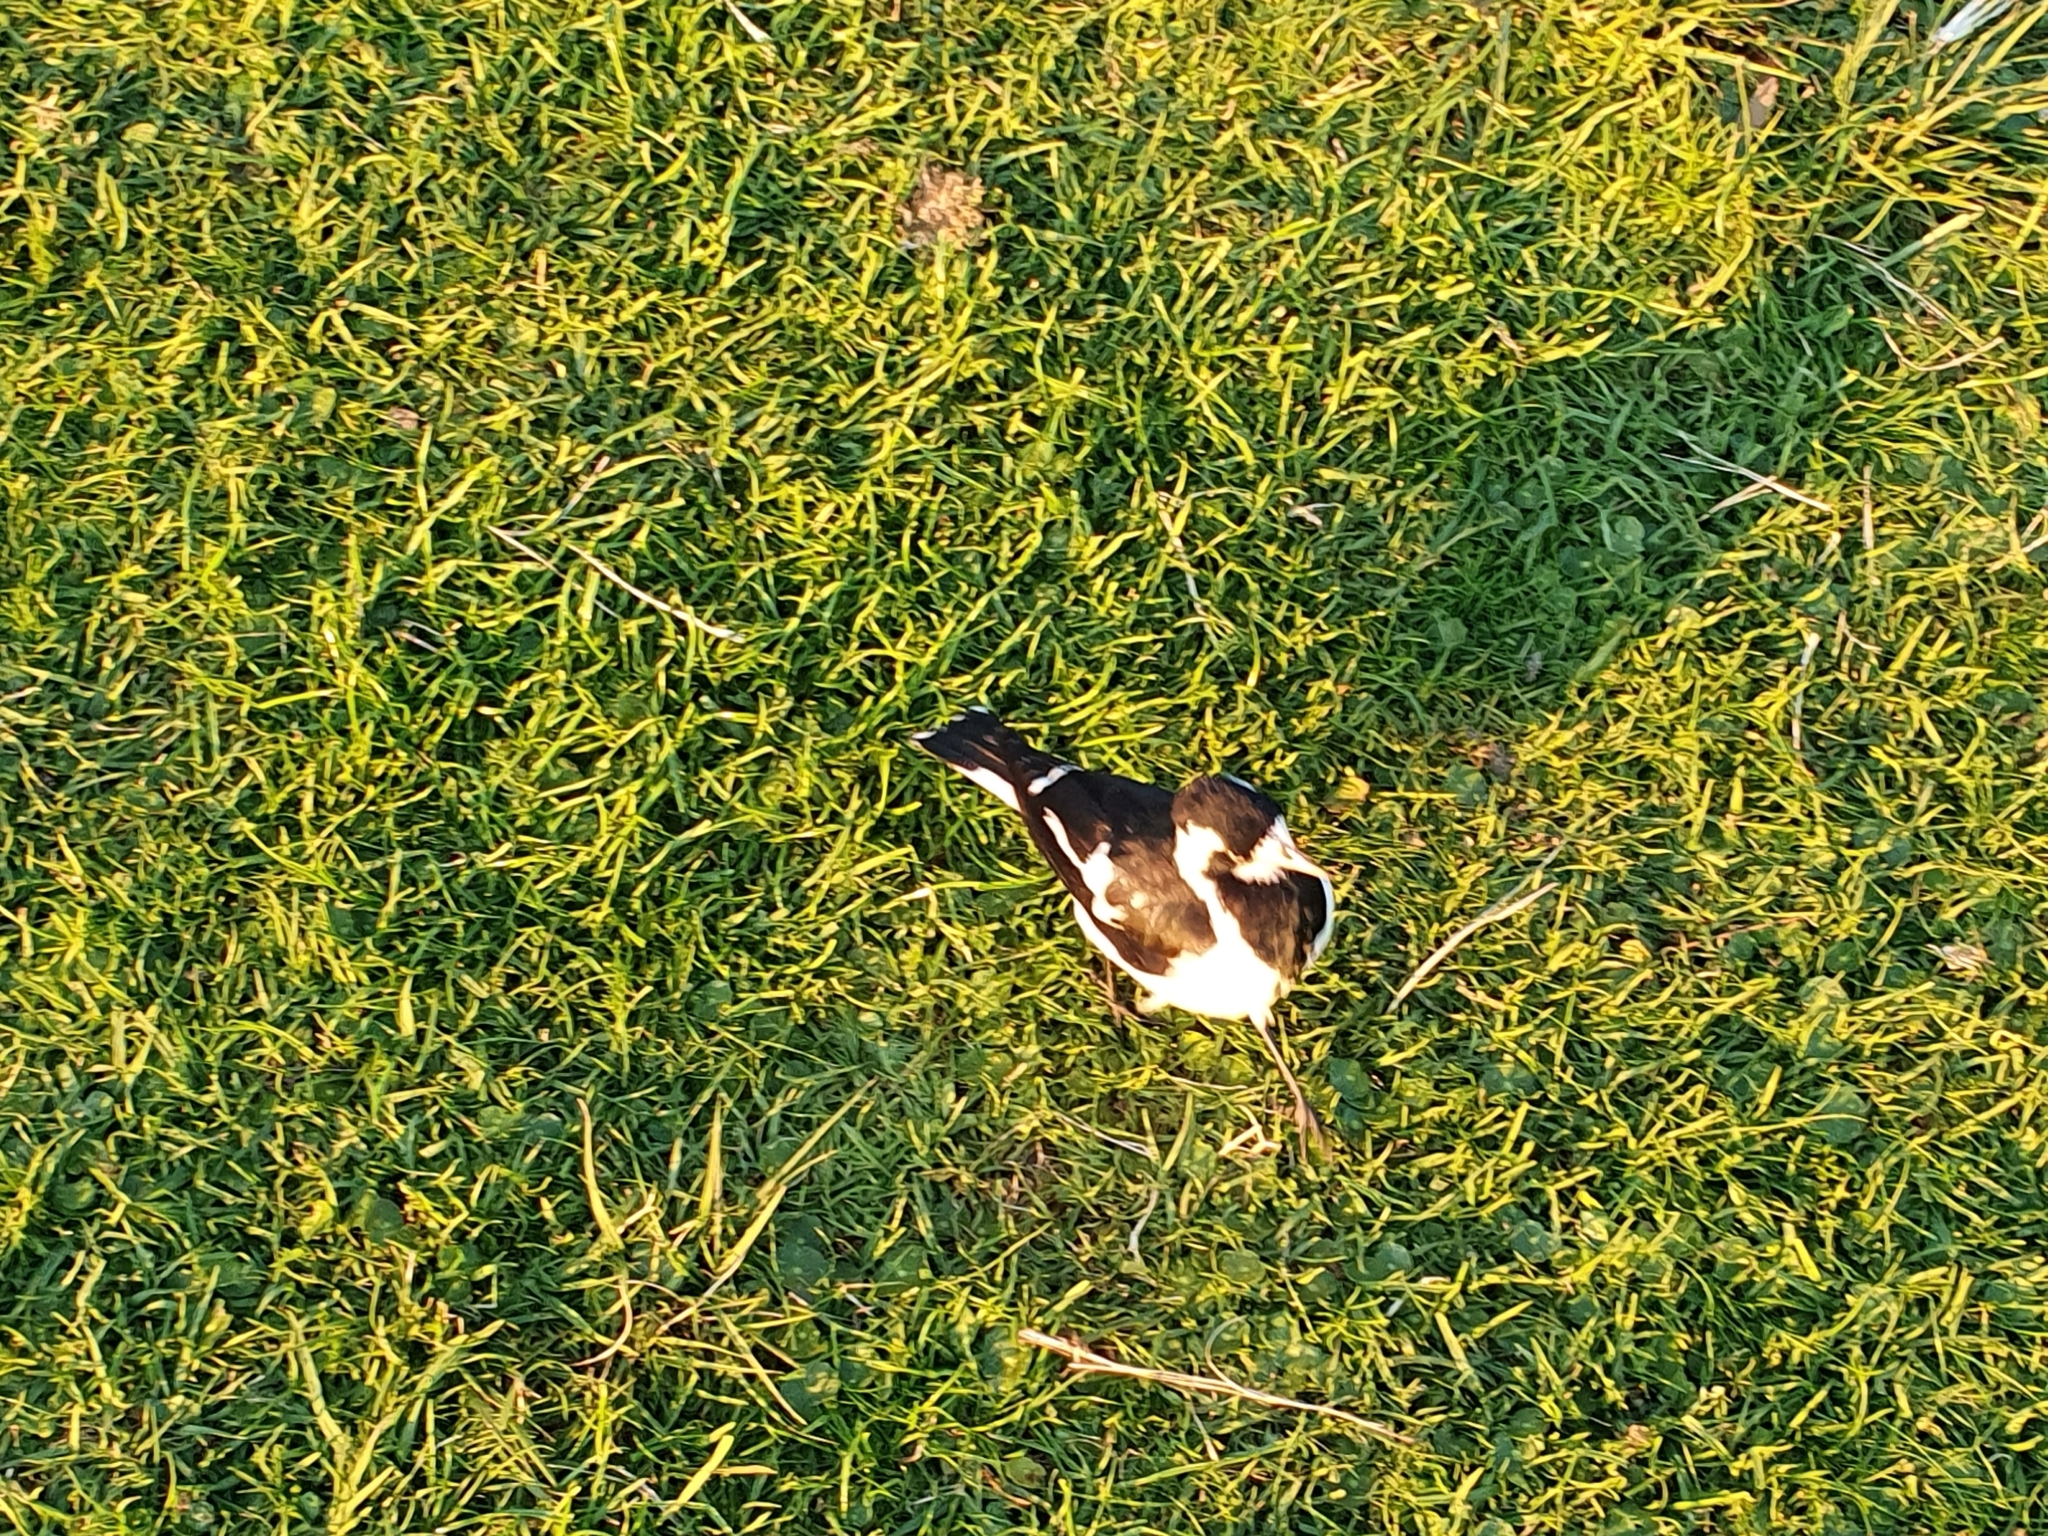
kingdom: Animalia
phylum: Chordata
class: Aves
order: Passeriformes
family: Monarchidae
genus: Grallina
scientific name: Grallina cyanoleuca
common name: Magpie-lark
